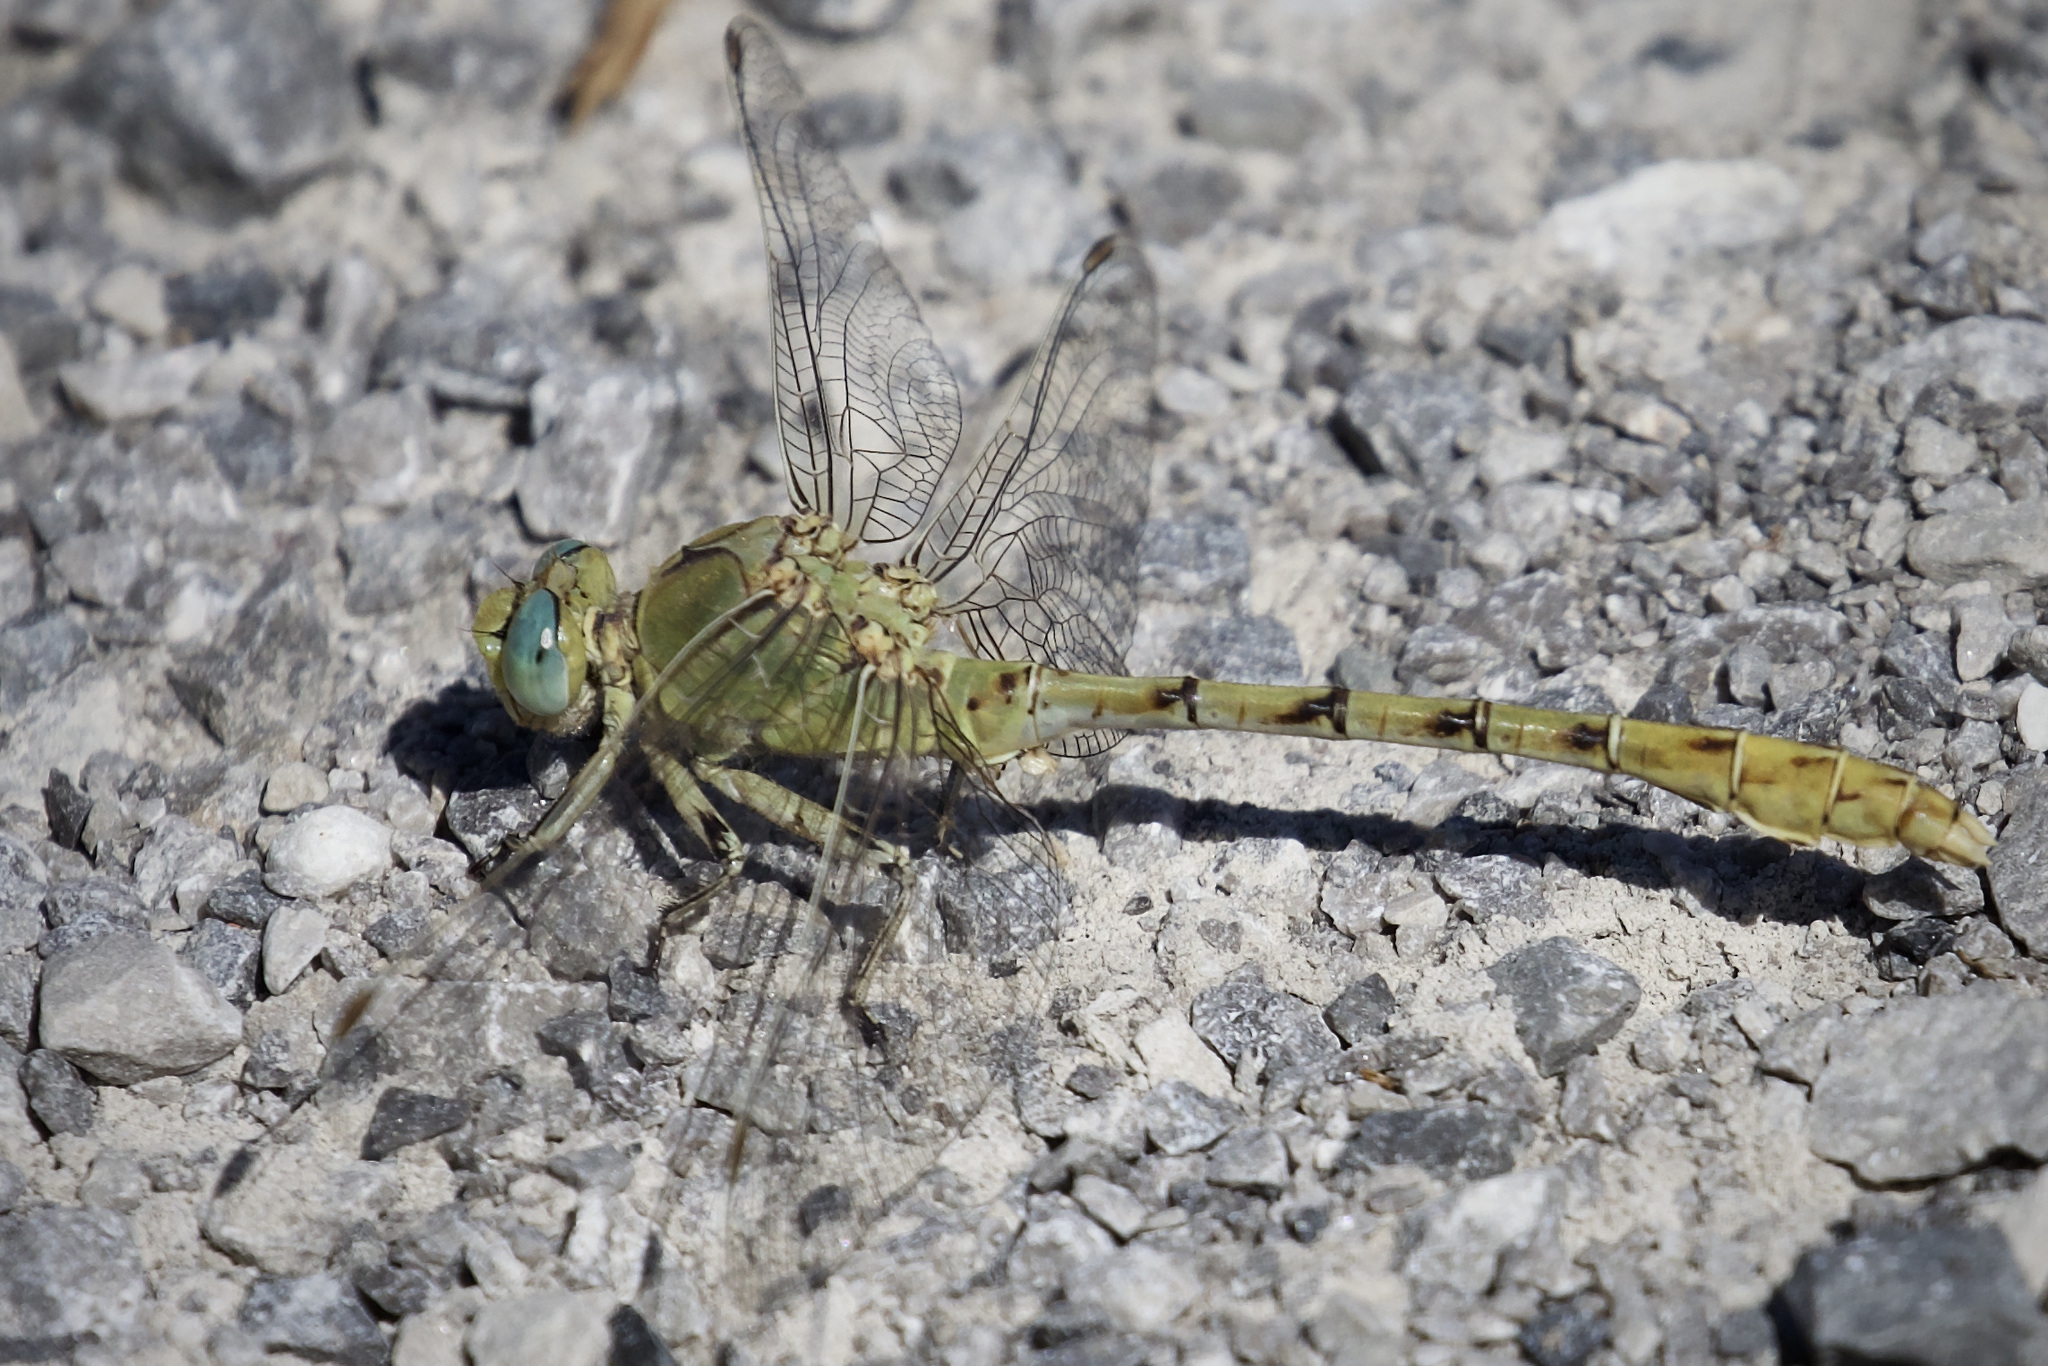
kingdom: Animalia
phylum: Arthropoda
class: Insecta
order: Odonata
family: Gomphidae
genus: Ophiogomphus
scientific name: Ophiogomphus severus
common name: Pale snaketail
